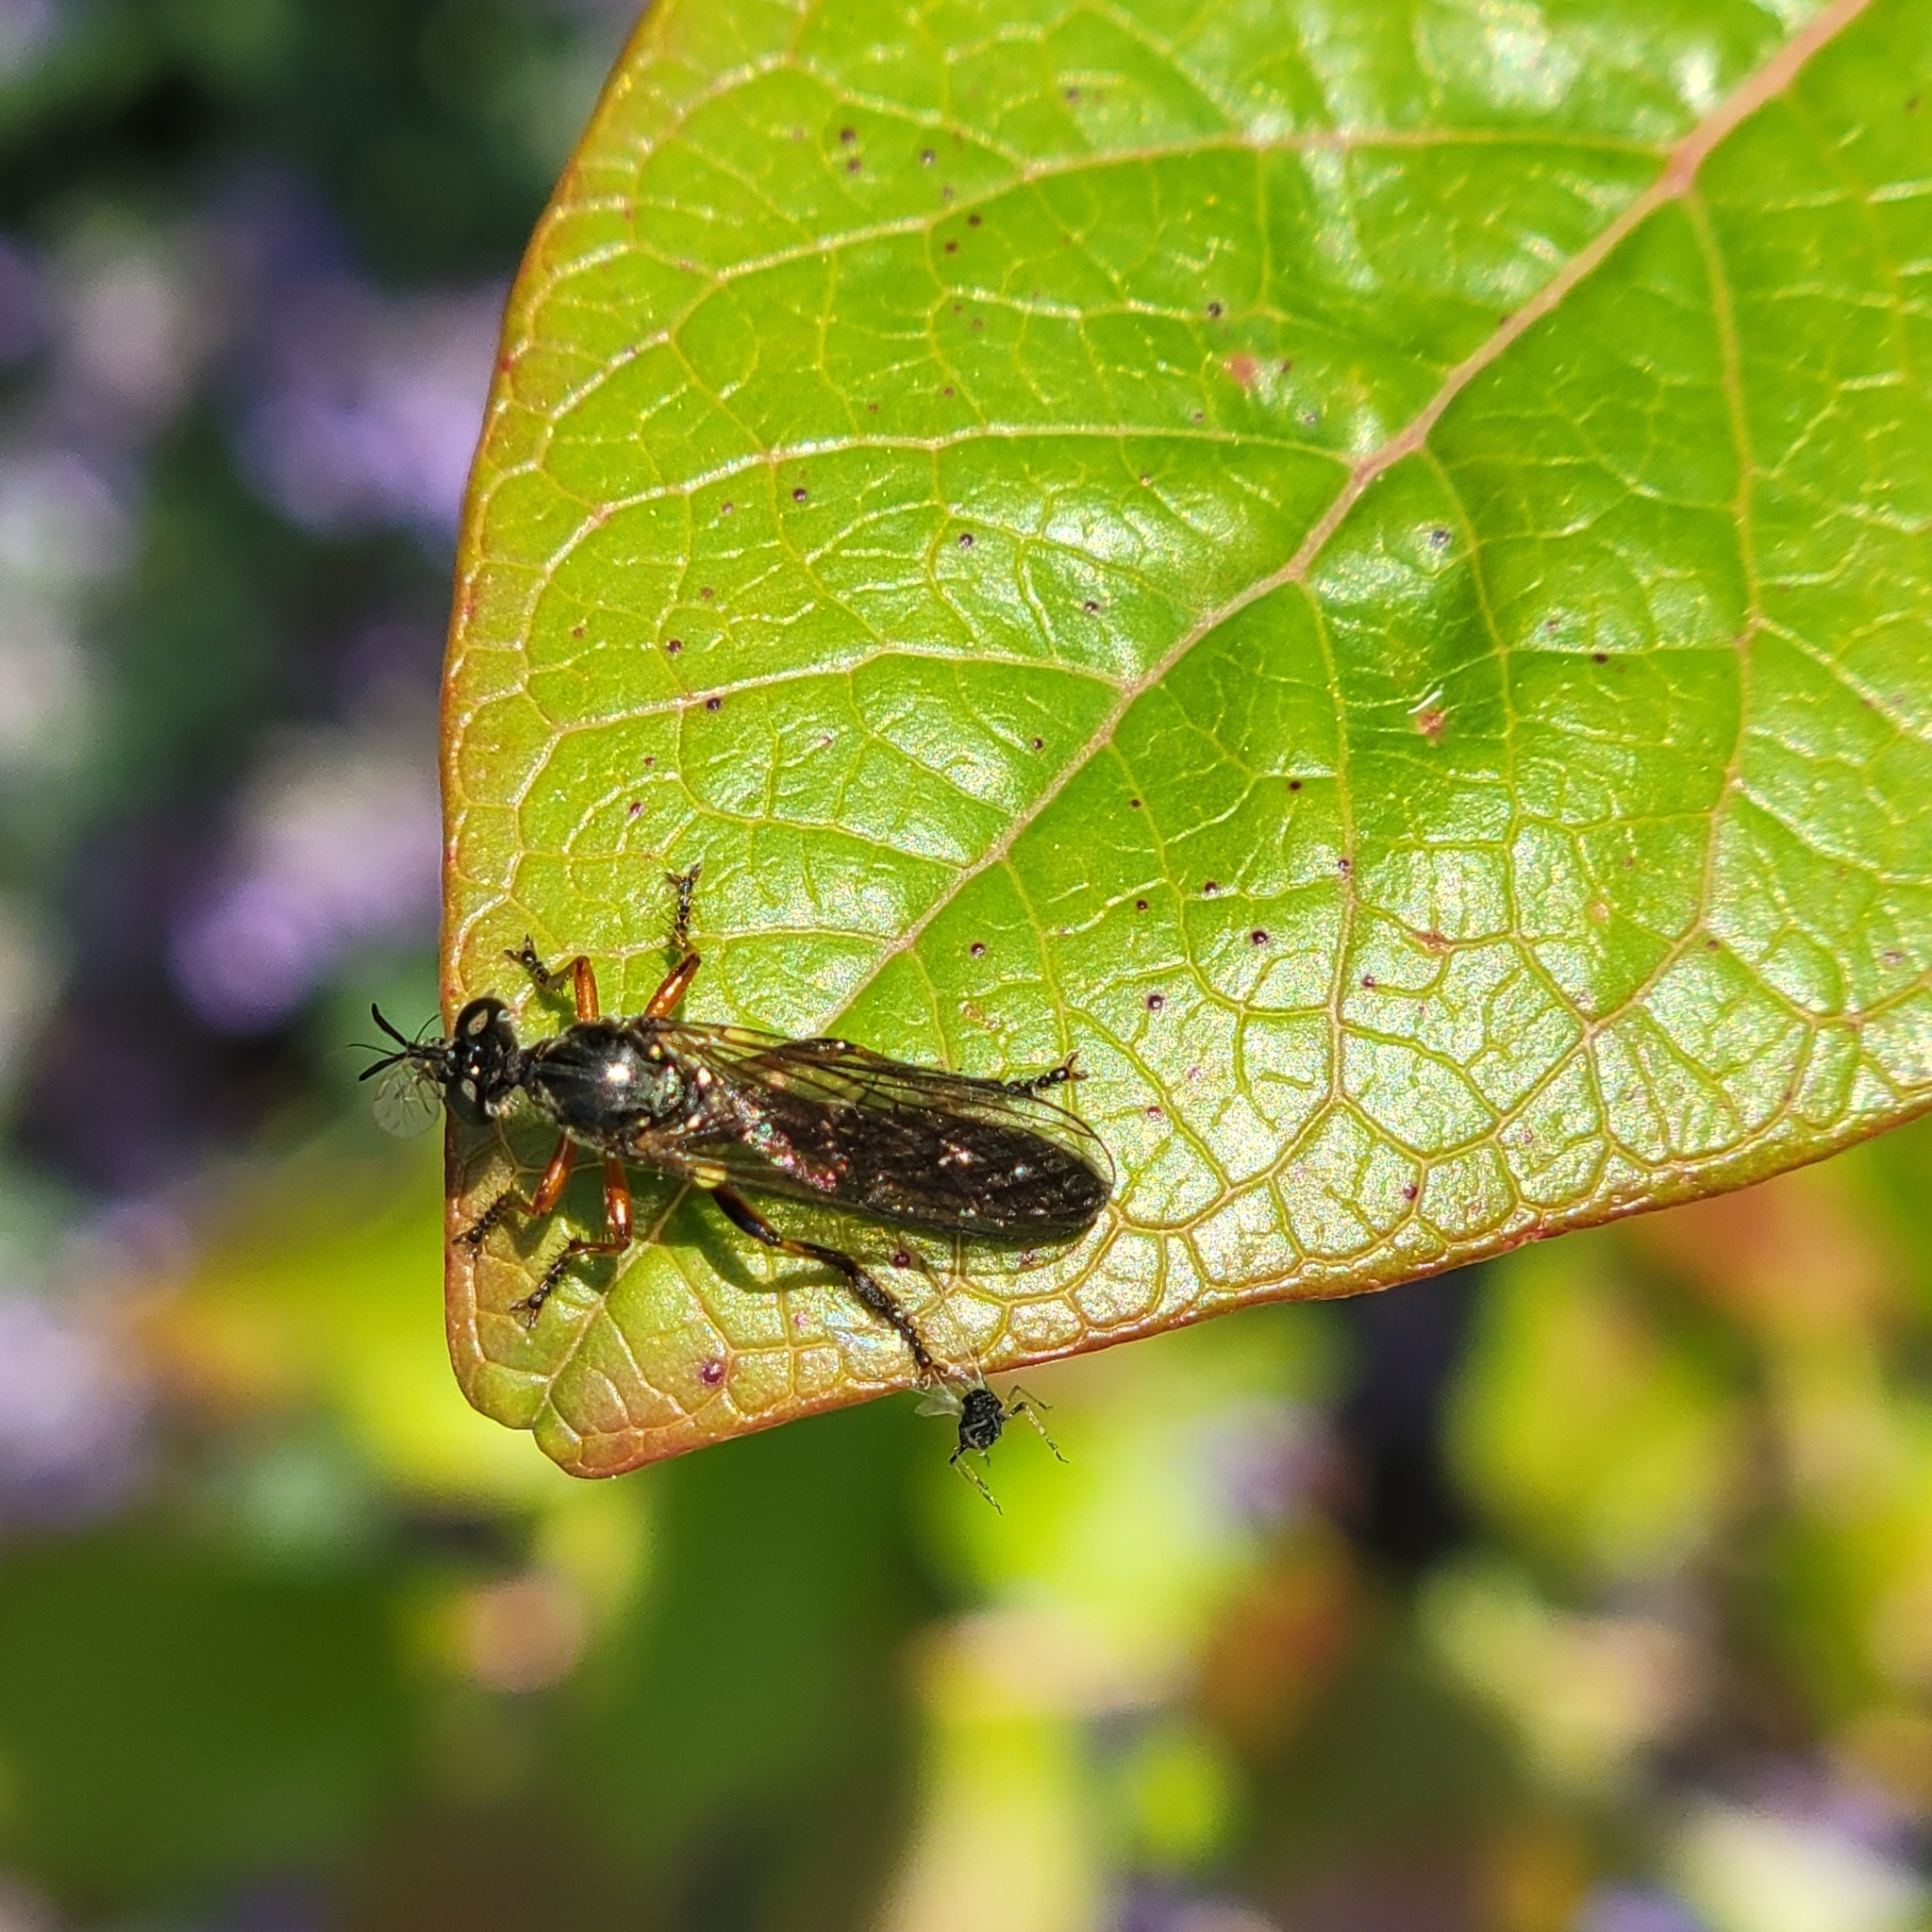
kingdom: Animalia
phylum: Arthropoda
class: Insecta
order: Diptera
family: Asilidae
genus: Dioctria
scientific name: Dioctria hyalipennis
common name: Stripe-legged robberfly
